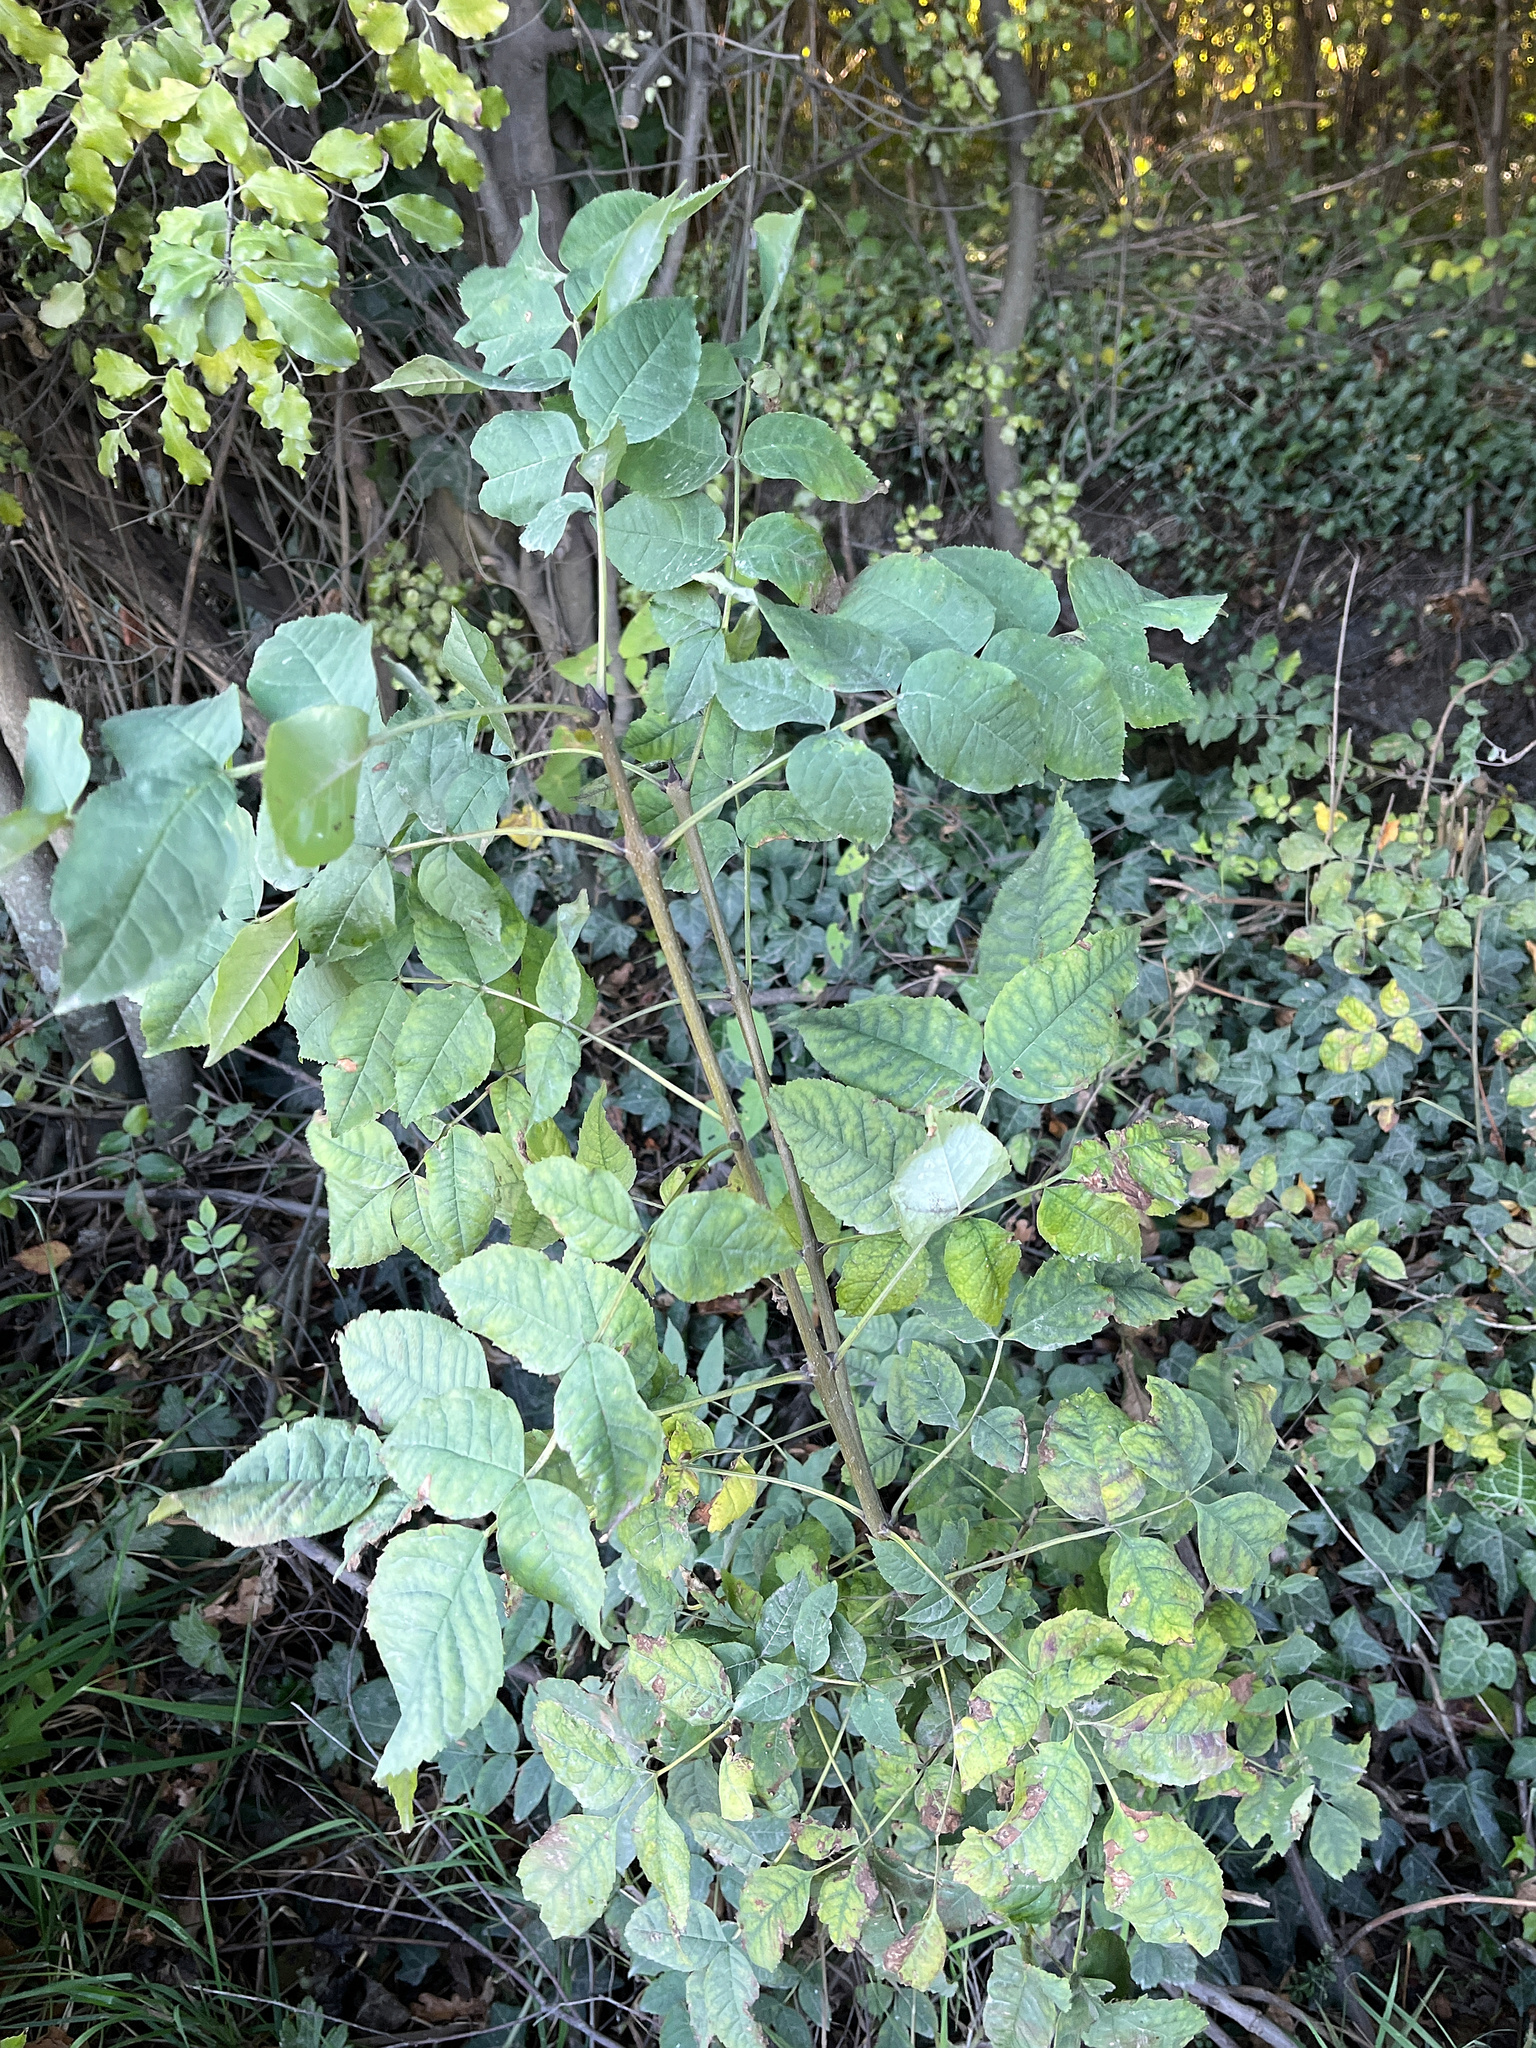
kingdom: Plantae
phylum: Tracheophyta
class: Magnoliopsida
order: Lamiales
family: Oleaceae
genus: Fraxinus
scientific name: Fraxinus excelsior
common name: European ash
